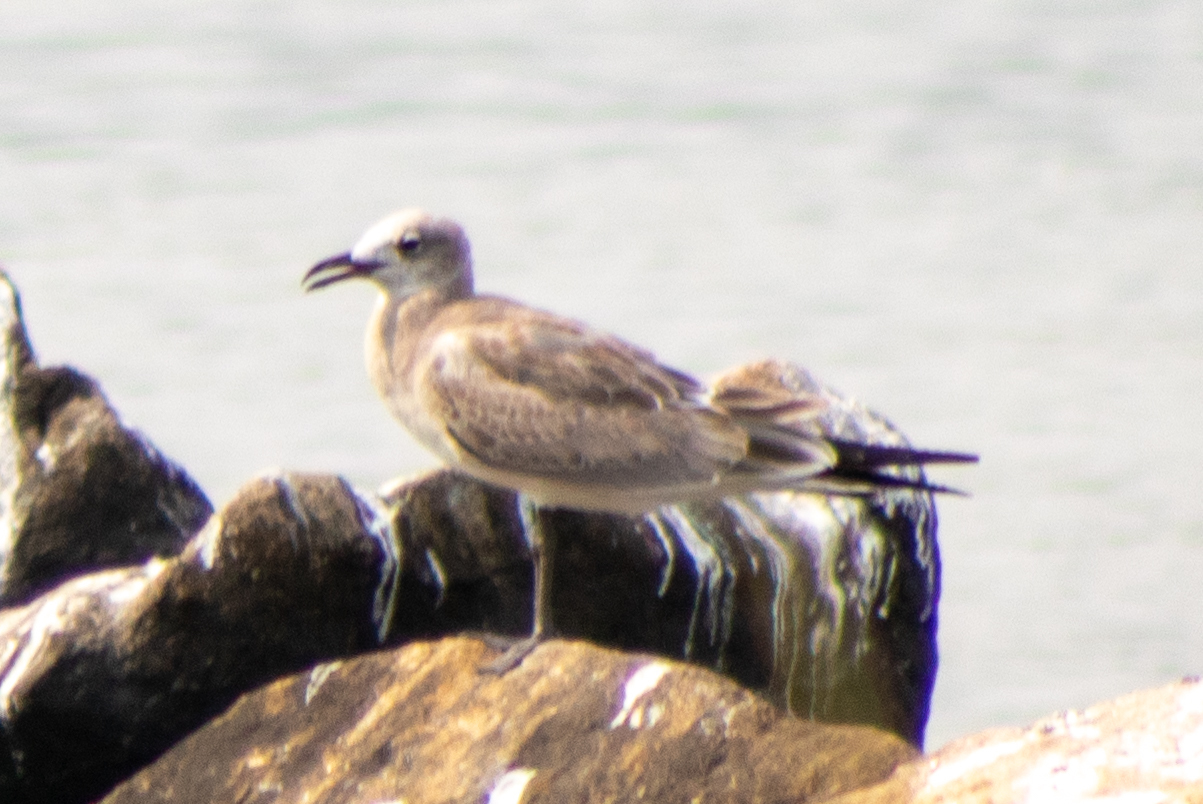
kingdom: Animalia
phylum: Chordata
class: Aves
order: Charadriiformes
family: Laridae
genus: Leucophaeus
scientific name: Leucophaeus atricilla
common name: Laughing gull
